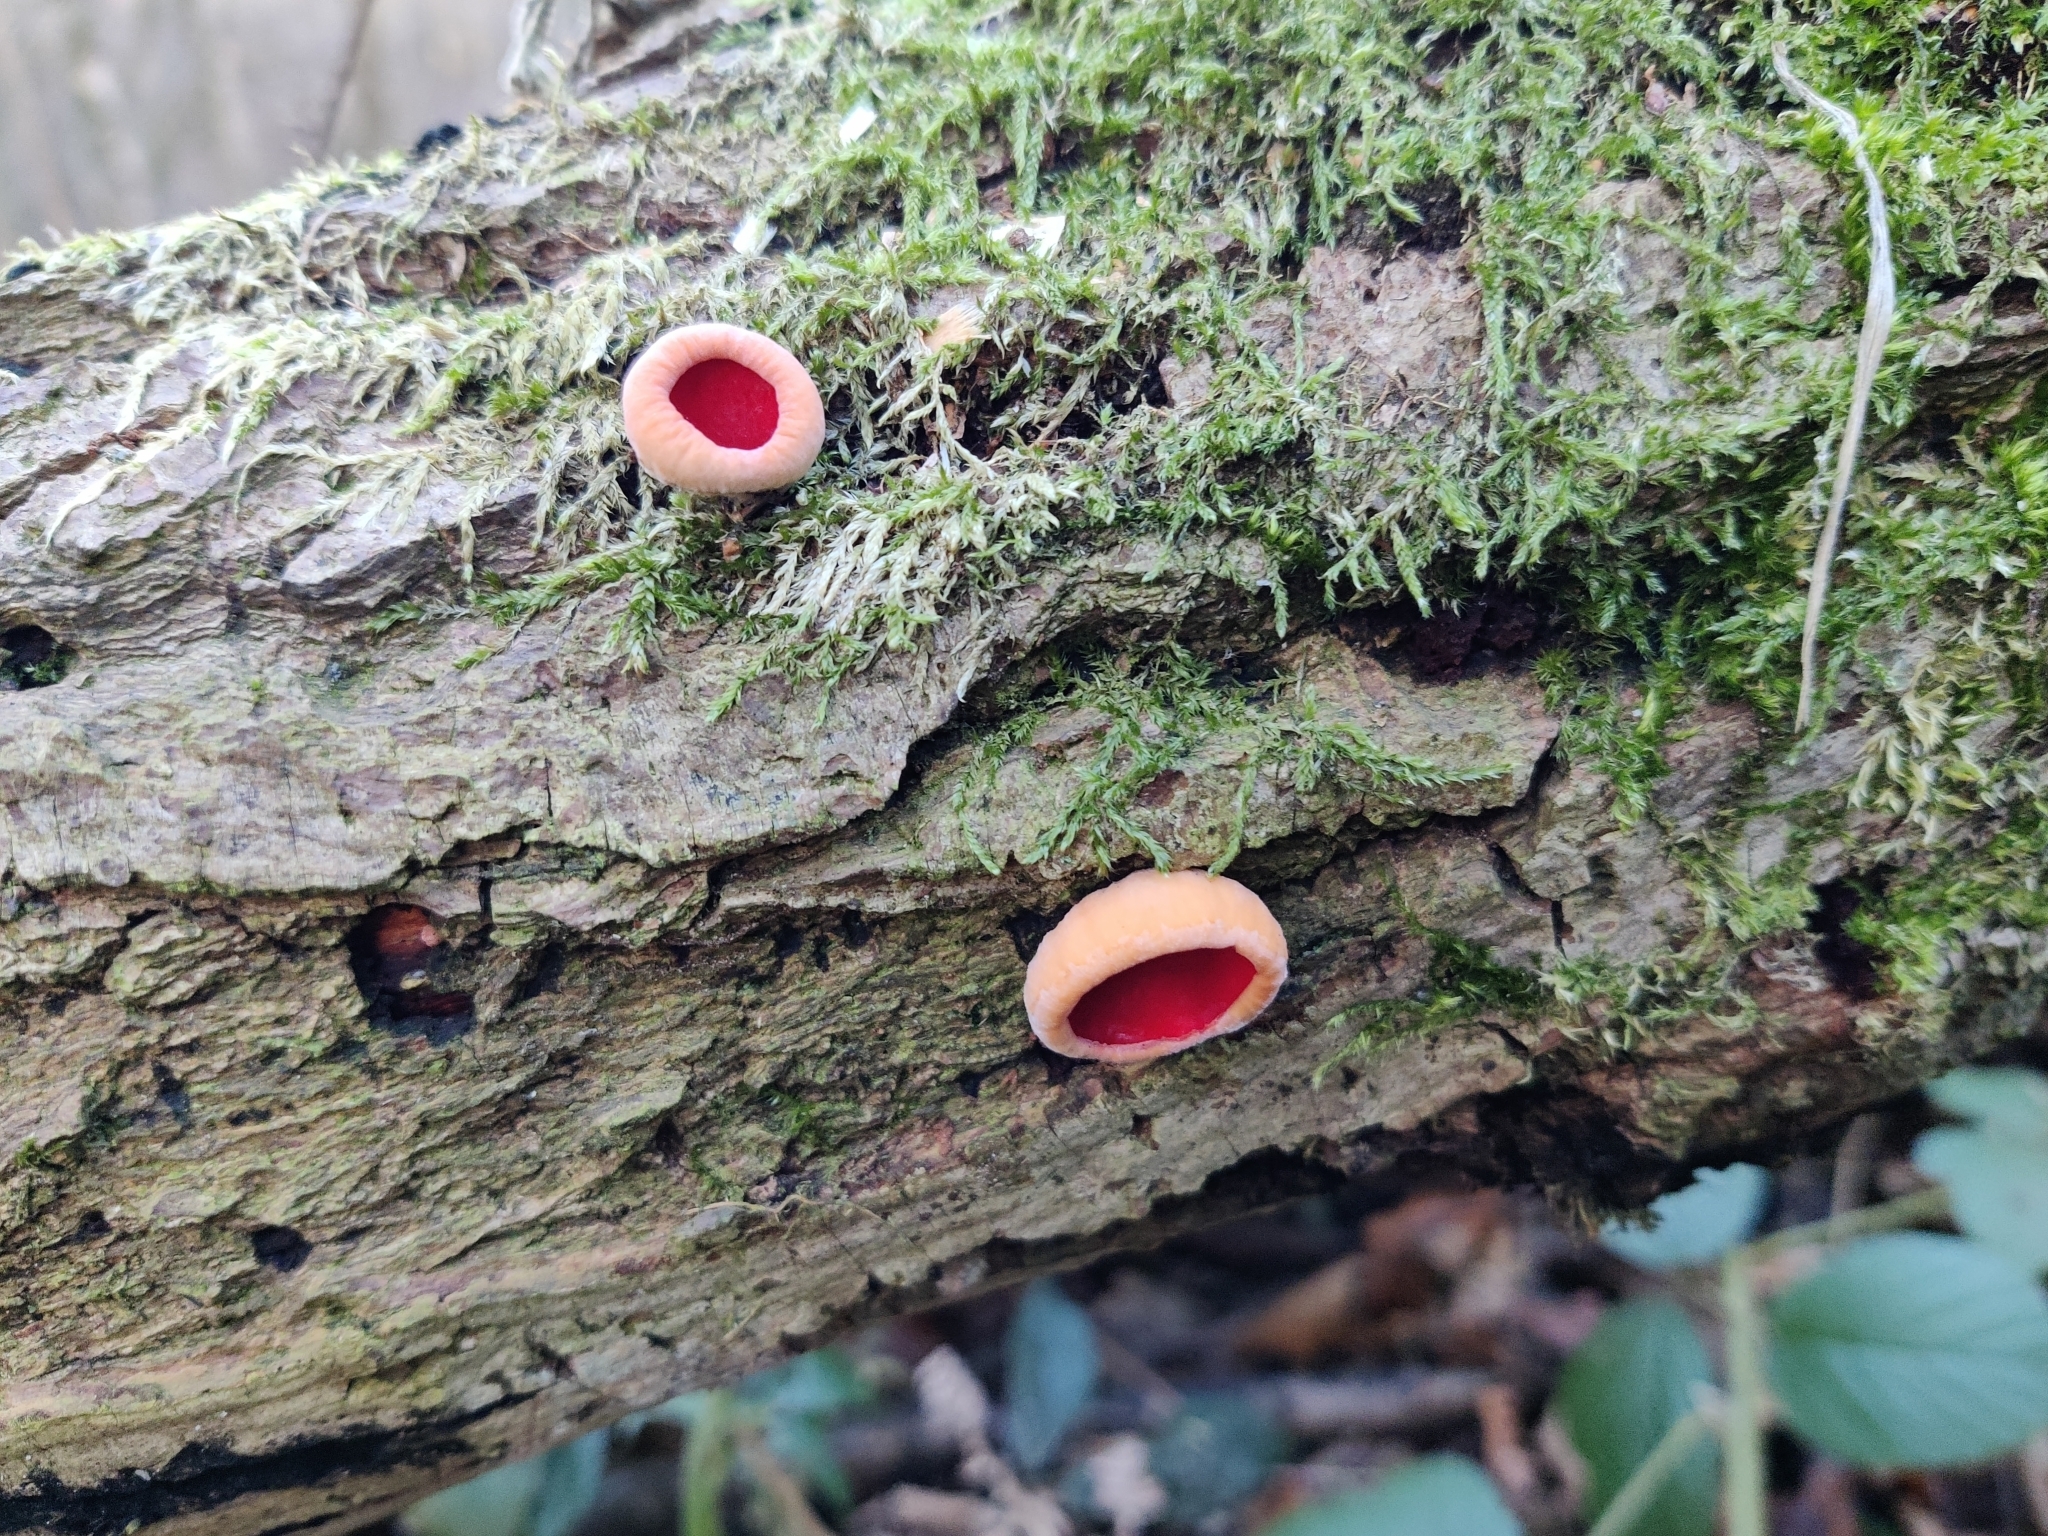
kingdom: Fungi
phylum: Ascomycota
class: Pezizomycetes
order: Pezizales
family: Sarcoscyphaceae
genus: Sarcoscypha
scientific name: Sarcoscypha
